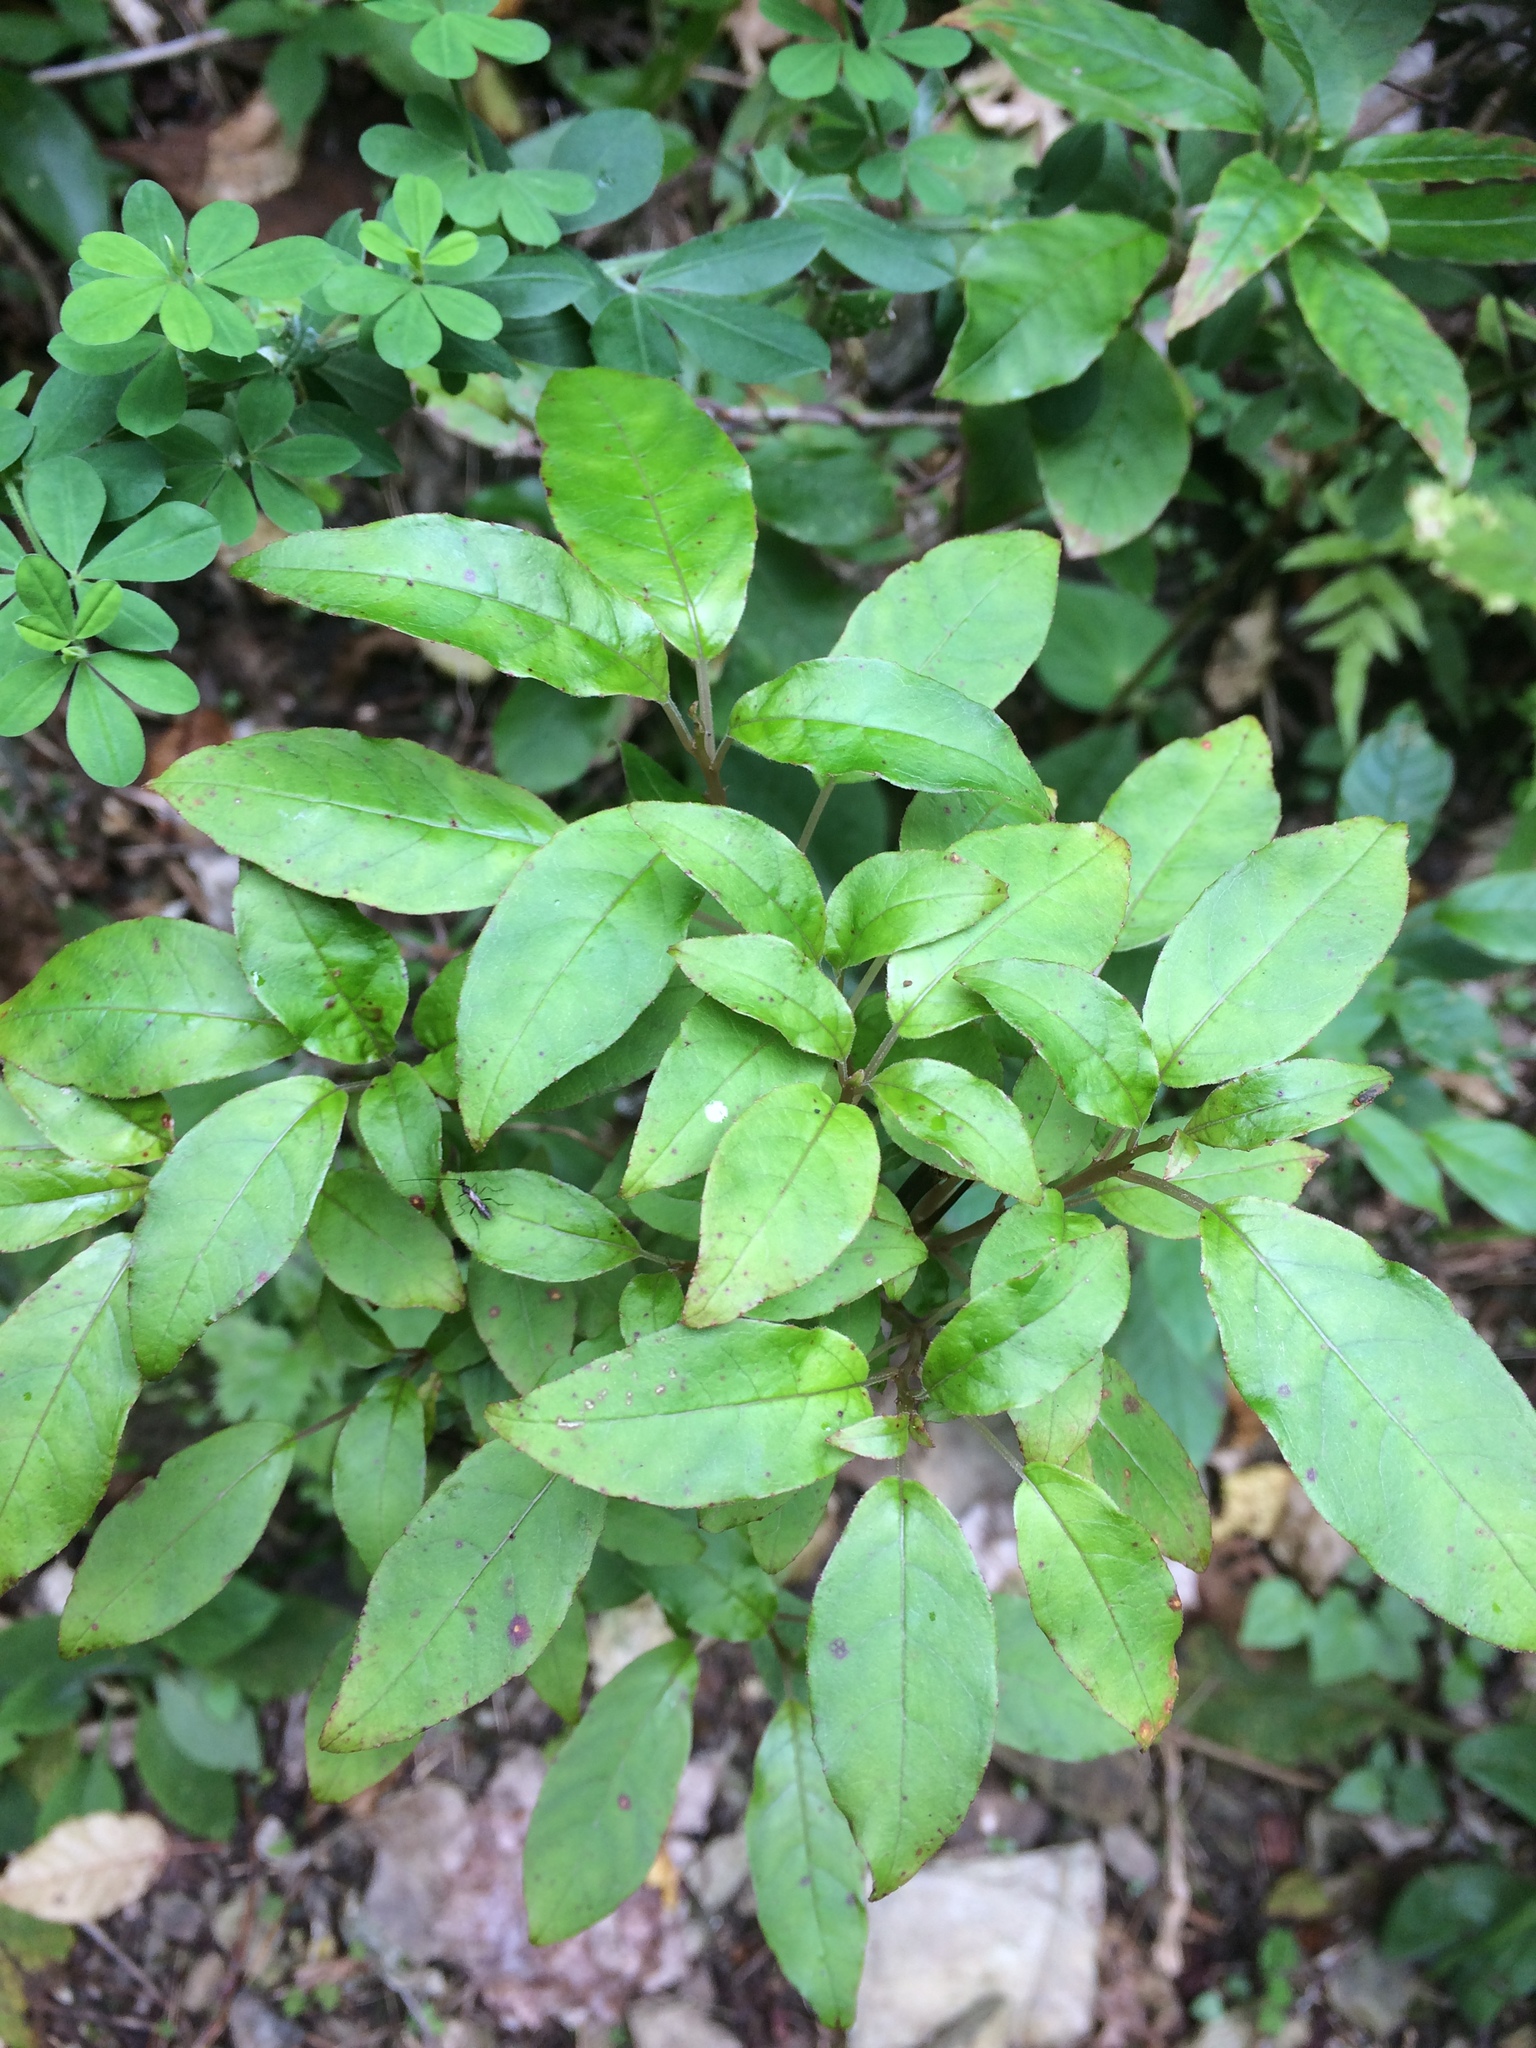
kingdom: Plantae
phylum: Tracheophyta
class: Magnoliopsida
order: Myrtales
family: Onagraceae
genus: Fuchsia
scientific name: Fuchsia excorticata
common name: Tree fuchsia
